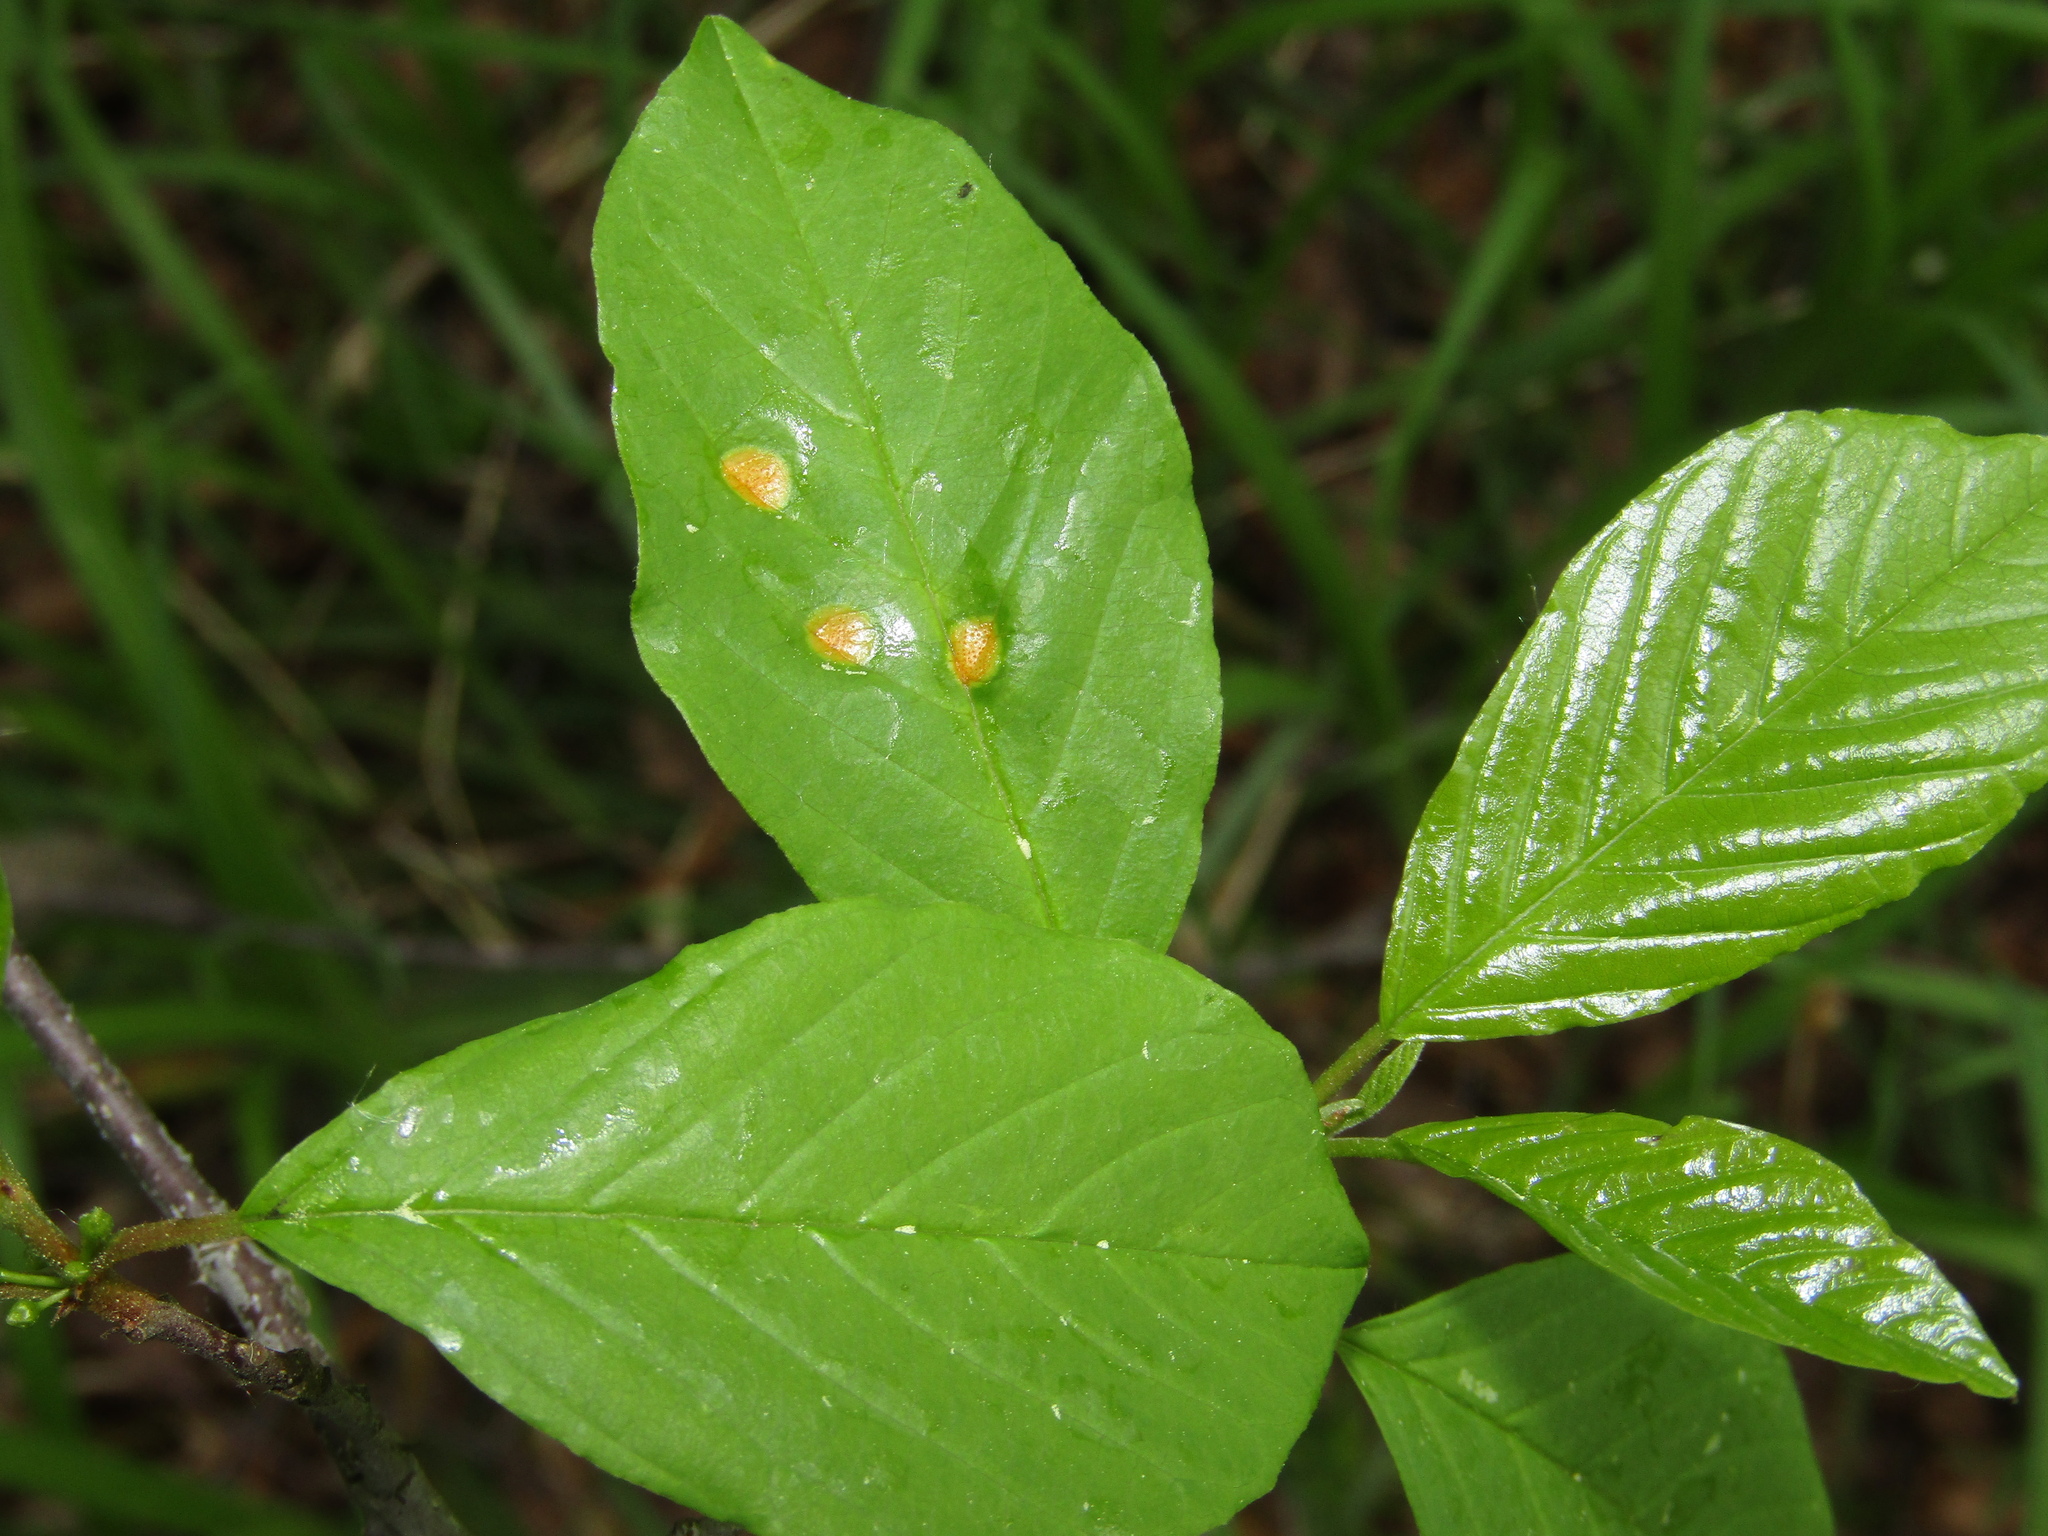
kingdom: Plantae
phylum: Tracheophyta
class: Magnoliopsida
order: Rosales
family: Rhamnaceae
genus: Frangula
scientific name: Frangula alnus
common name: Alder buckthorn
